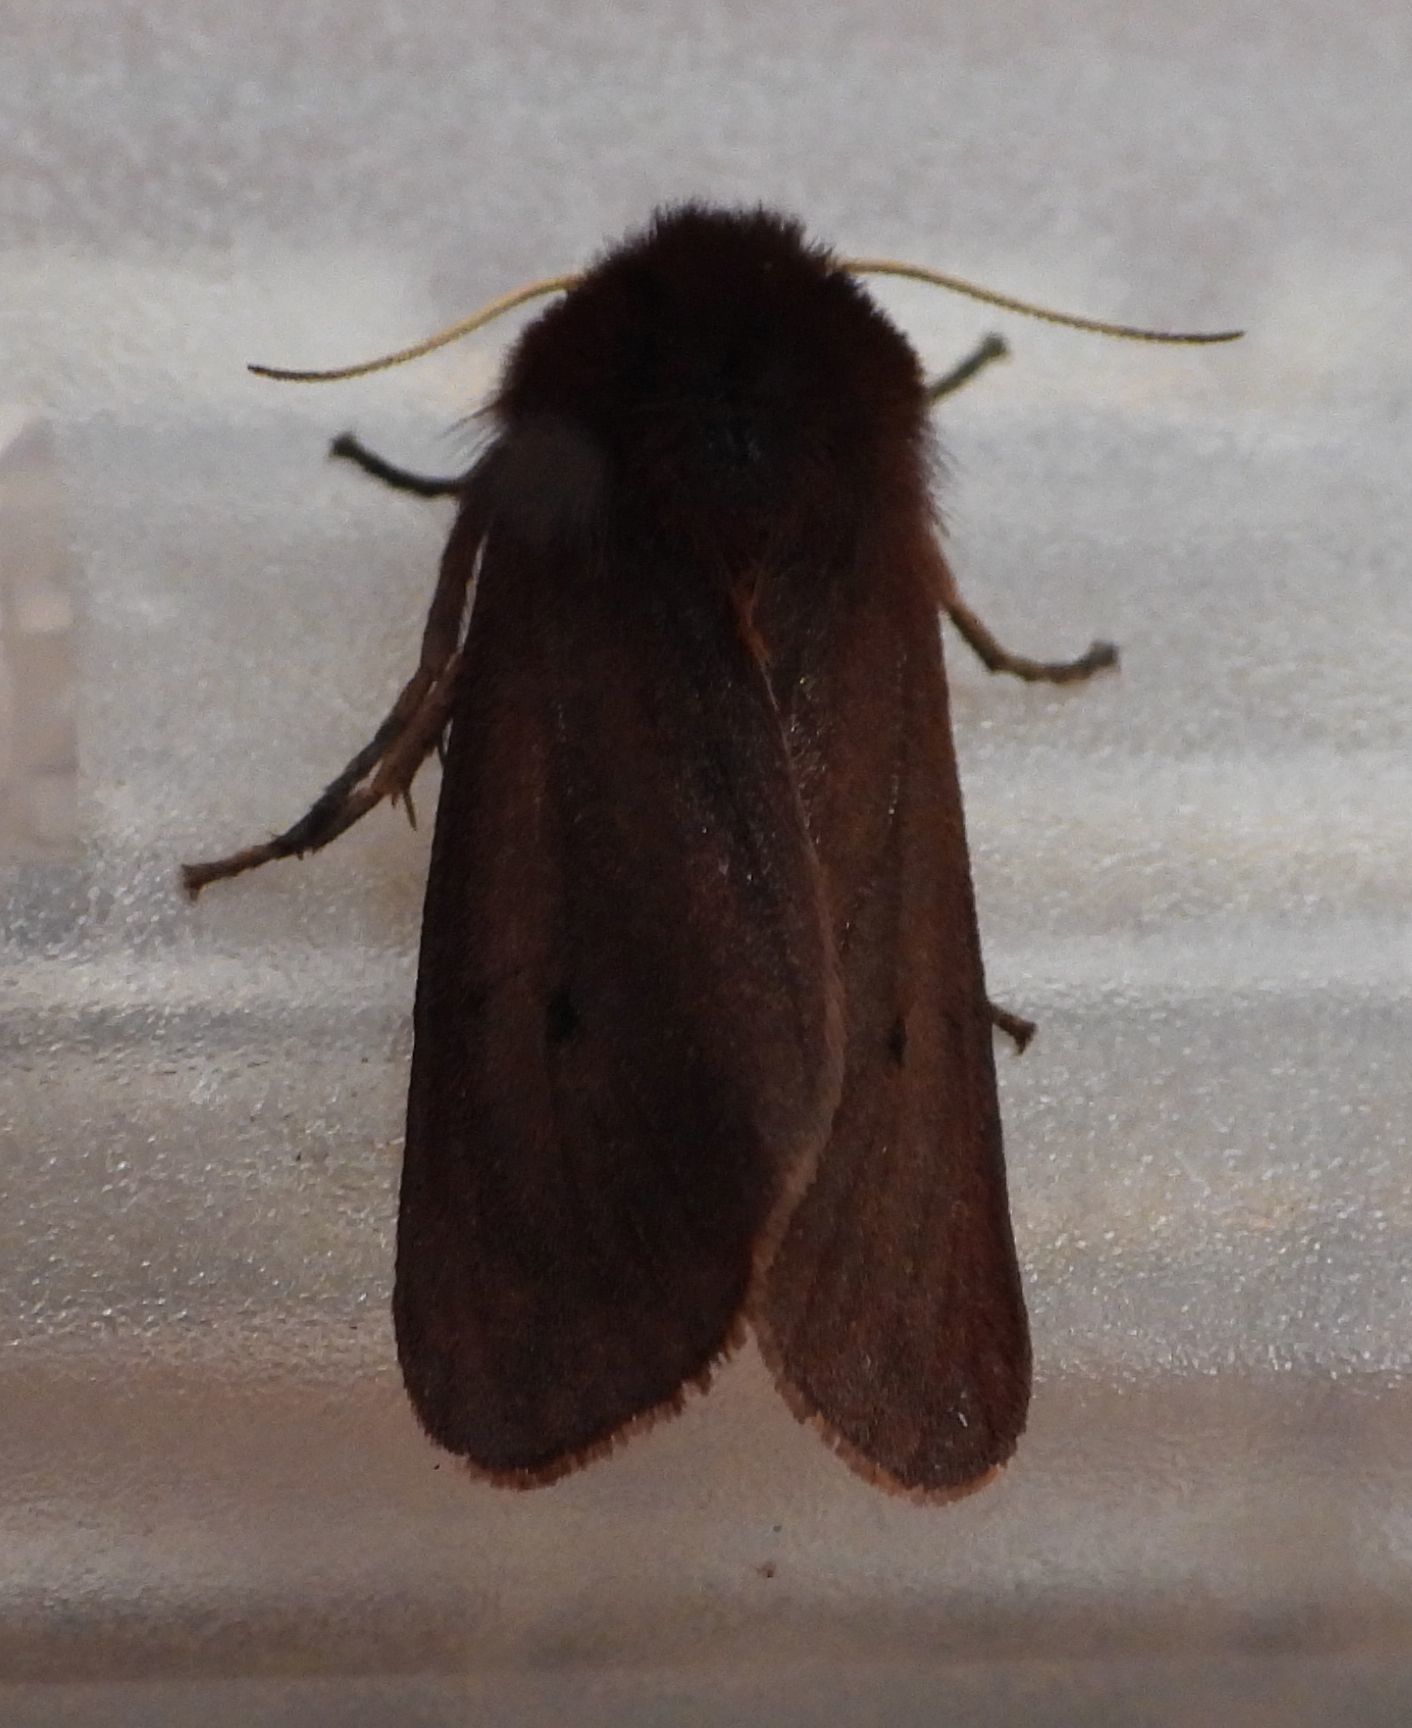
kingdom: Animalia
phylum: Arthropoda
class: Insecta
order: Lepidoptera
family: Erebidae
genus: Phragmatobia
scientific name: Phragmatobia fuliginosa
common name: Ruby tiger
